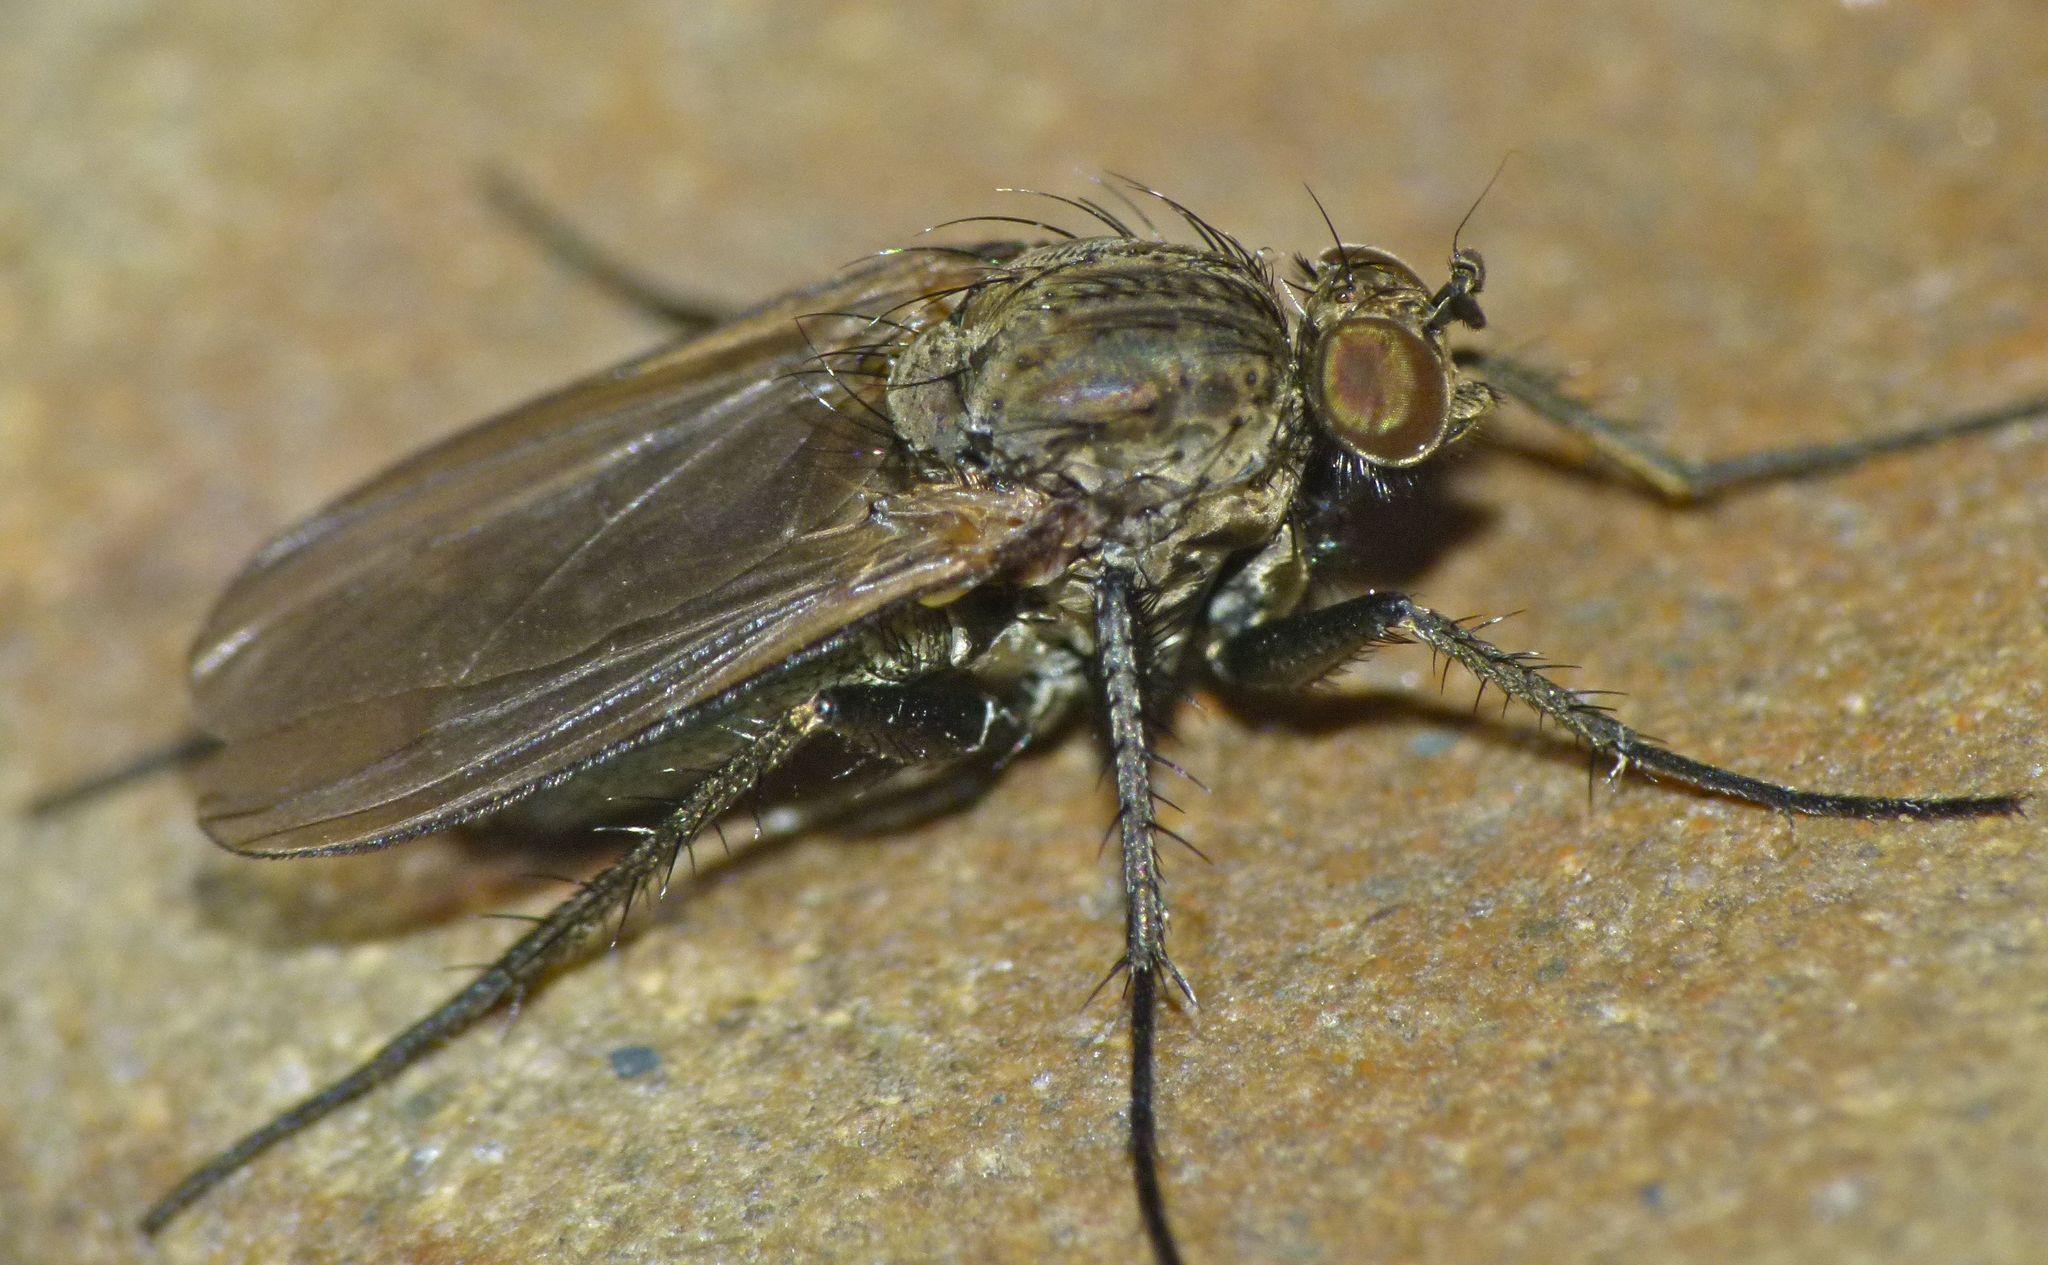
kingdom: Animalia
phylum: Arthropoda
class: Insecta
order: Diptera
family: Dolichopodidae
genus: Ostenia
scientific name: Ostenia robusta
